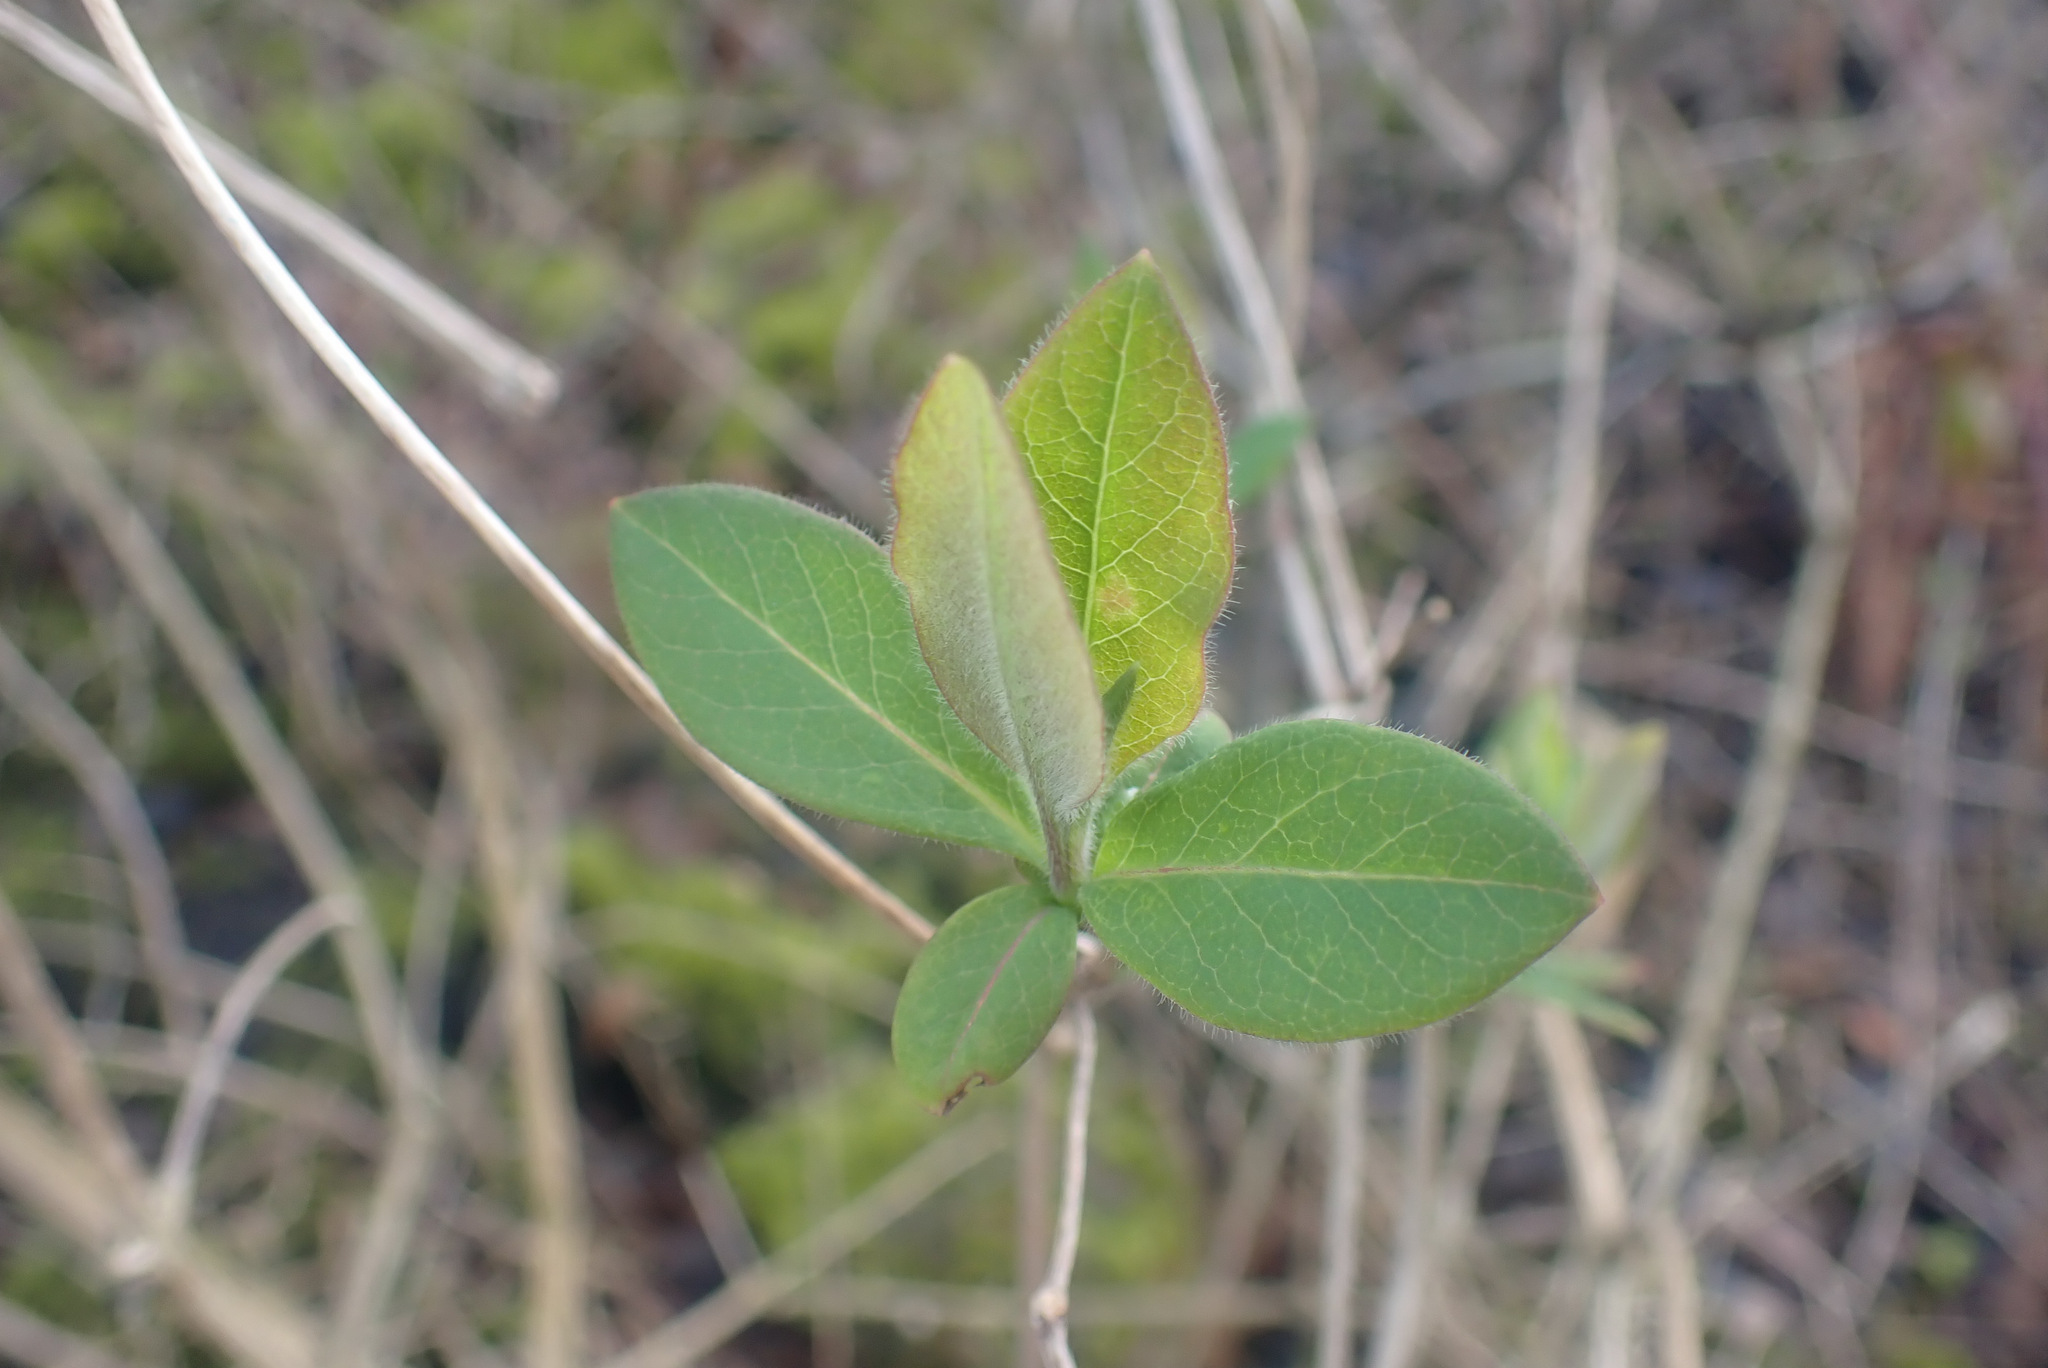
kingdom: Plantae
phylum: Tracheophyta
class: Magnoliopsida
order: Dipsacales
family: Caprifoliaceae
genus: Lonicera
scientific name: Lonicera periclymenum
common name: European honeysuckle
